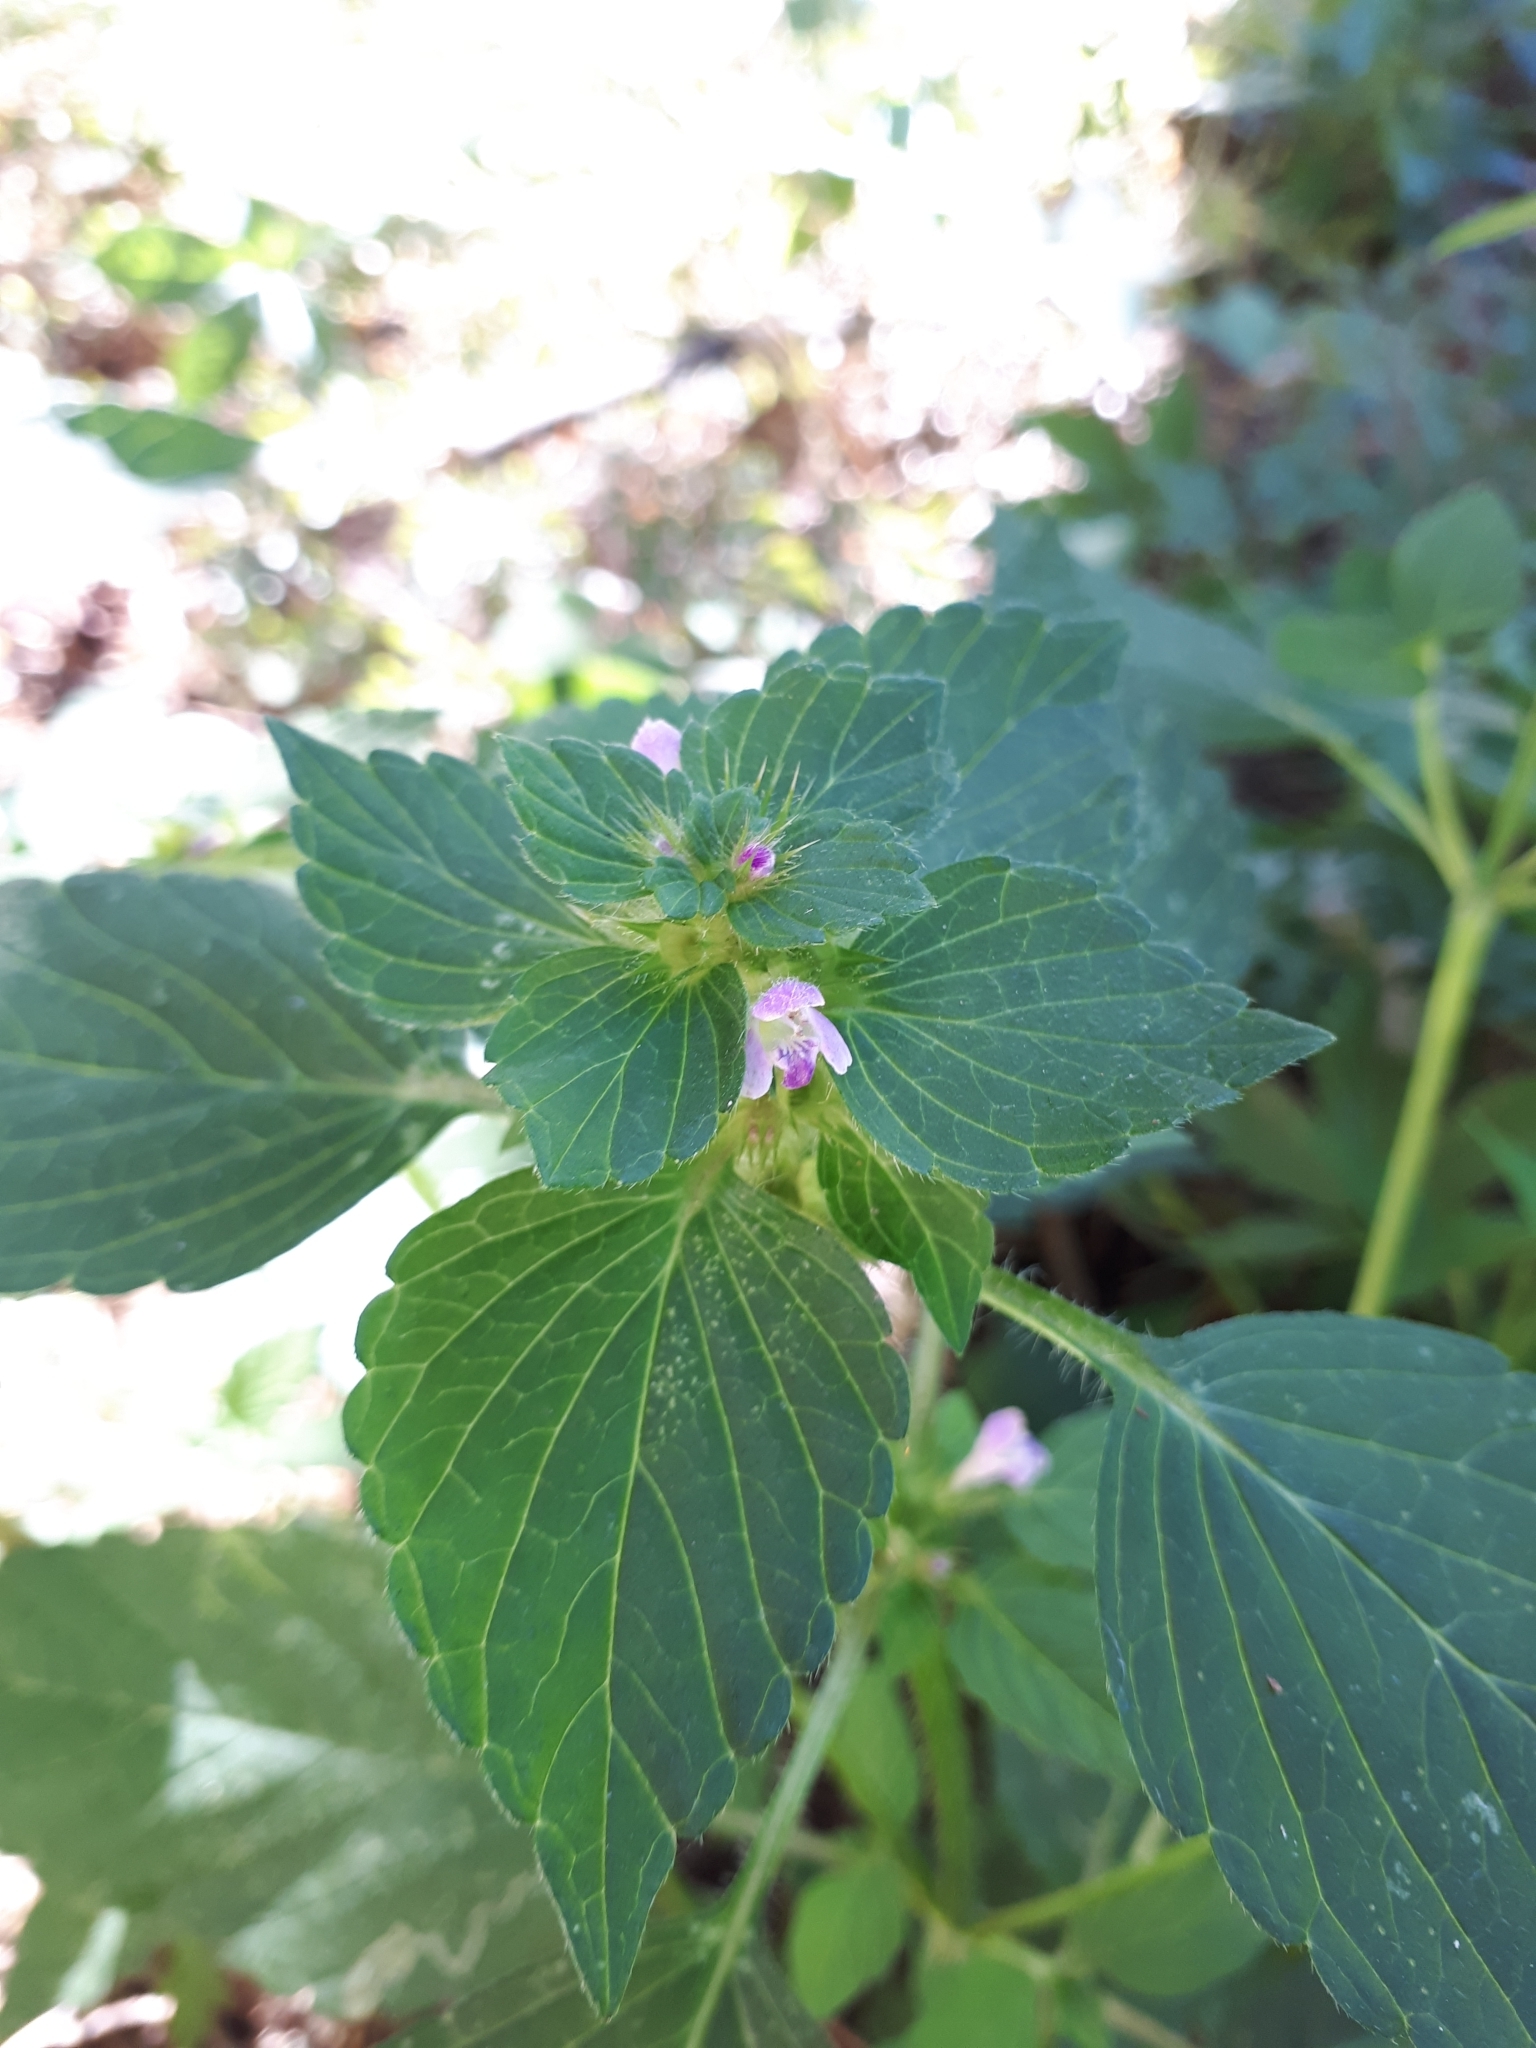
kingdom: Plantae
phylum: Tracheophyta
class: Magnoliopsida
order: Lamiales
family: Lamiaceae
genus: Galeopsis
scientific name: Galeopsis bifida
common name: Bifid hemp-nettle
